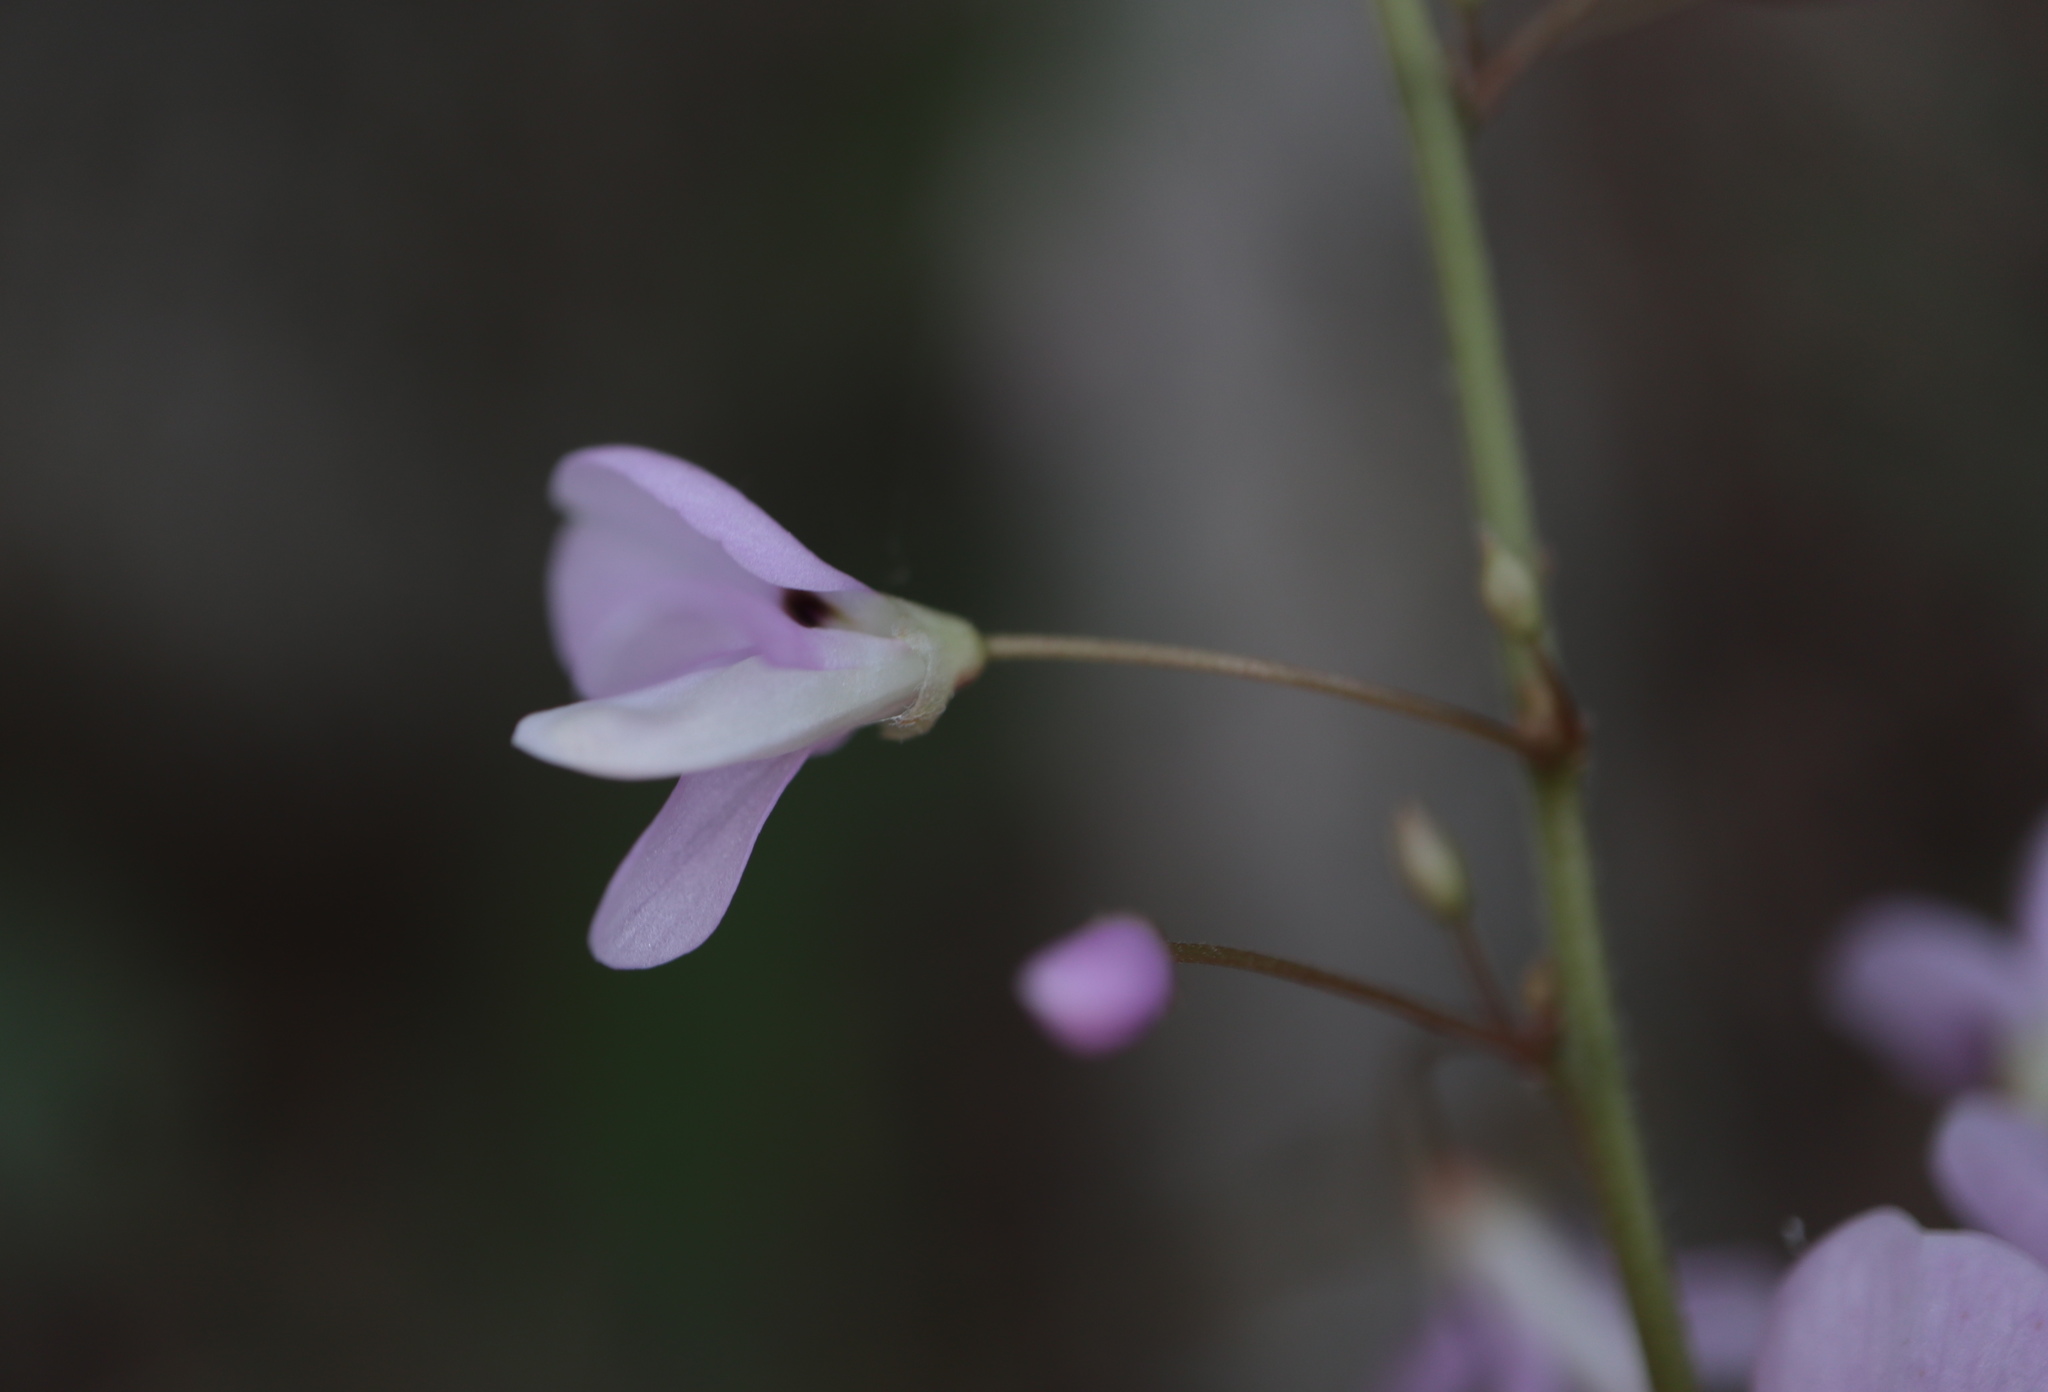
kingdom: Plantae
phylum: Tracheophyta
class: Magnoliopsida
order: Fabales
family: Fabaceae
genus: Hylodesmum
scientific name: Hylodesmum nudiflorum
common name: Bare-stemmed tick-trefoil
